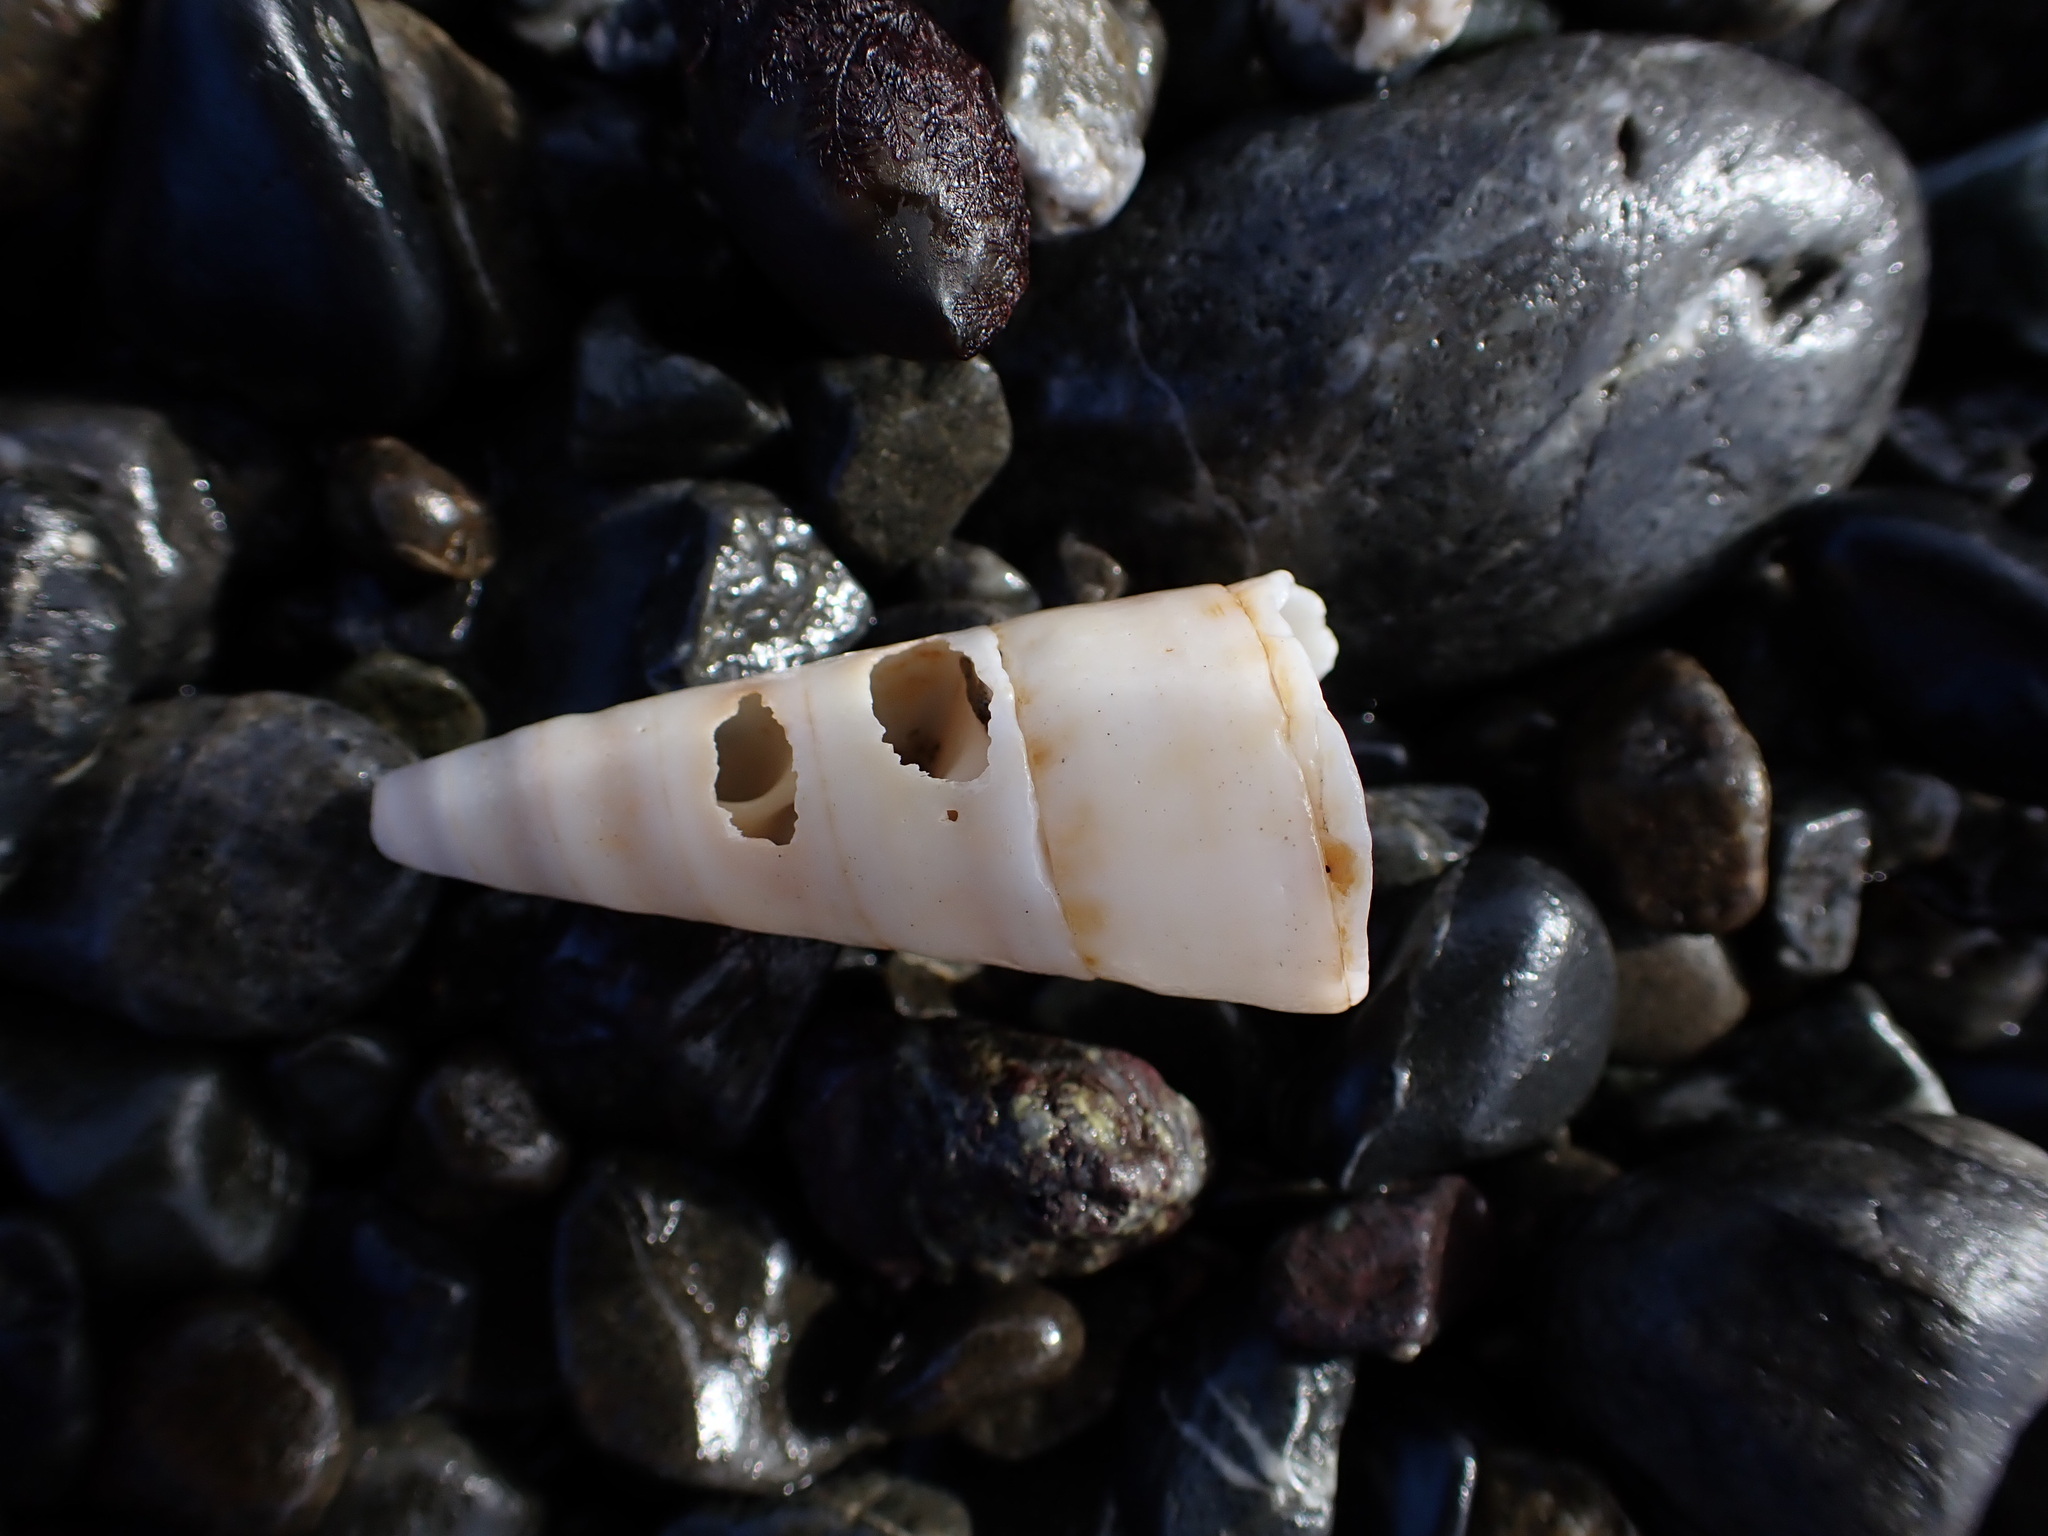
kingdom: Animalia
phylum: Mollusca
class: Gastropoda
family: Turritellidae
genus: Maoricolpus
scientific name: Maoricolpus roseus
